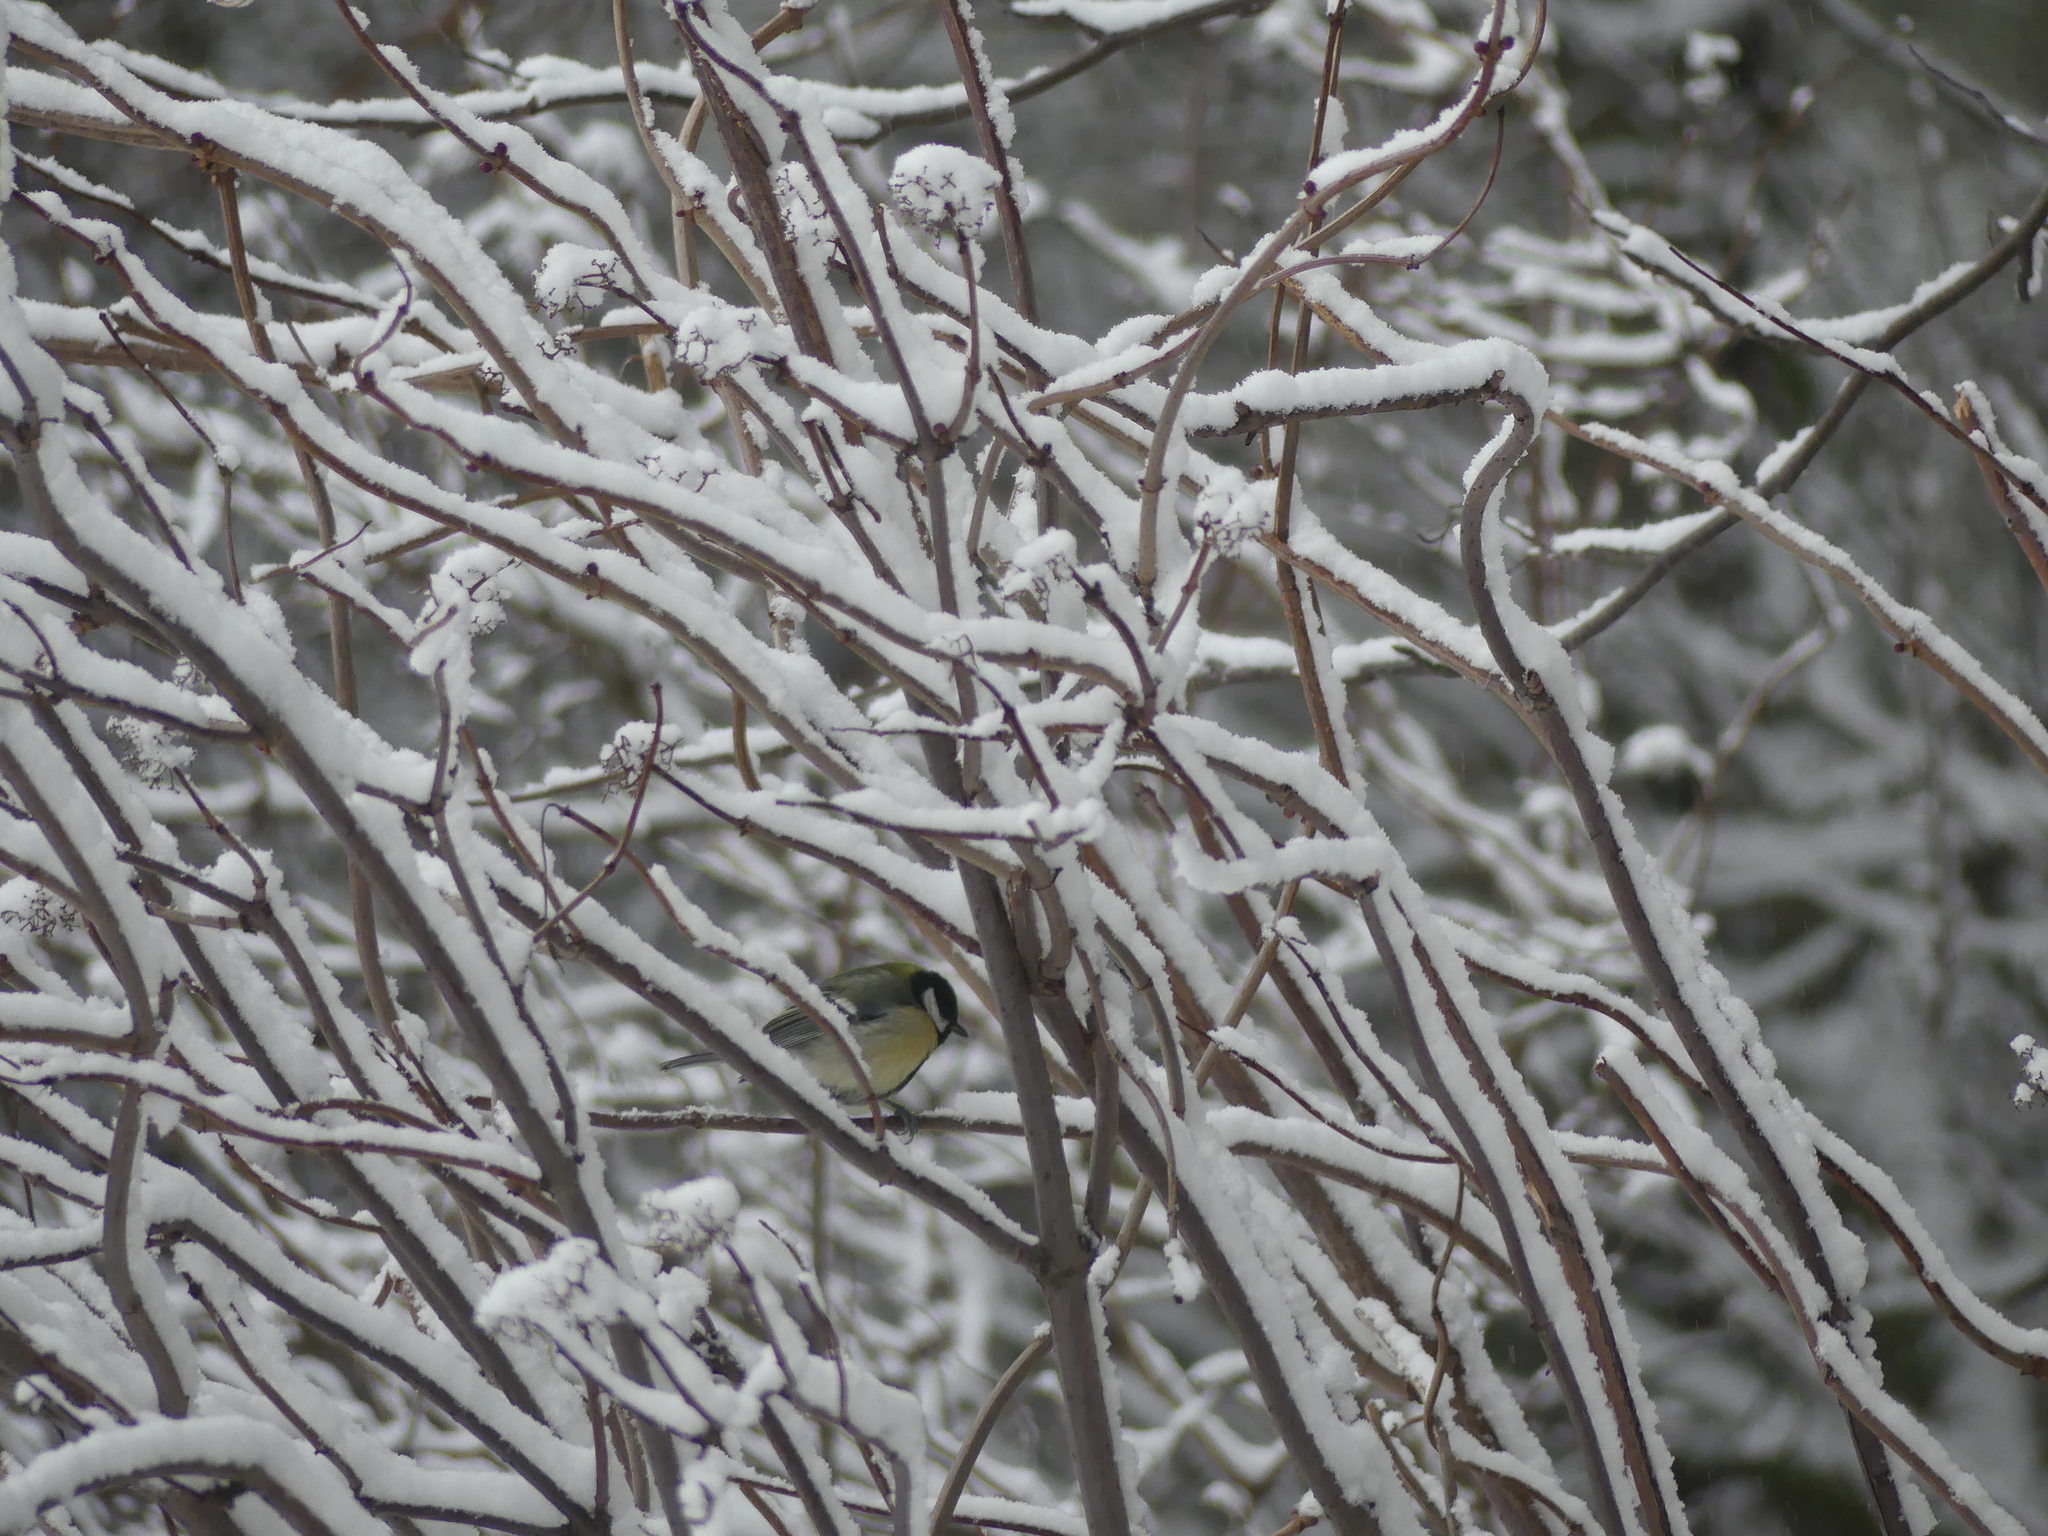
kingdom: Animalia
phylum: Chordata
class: Aves
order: Passeriformes
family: Paridae
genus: Parus
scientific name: Parus major
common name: Great tit
